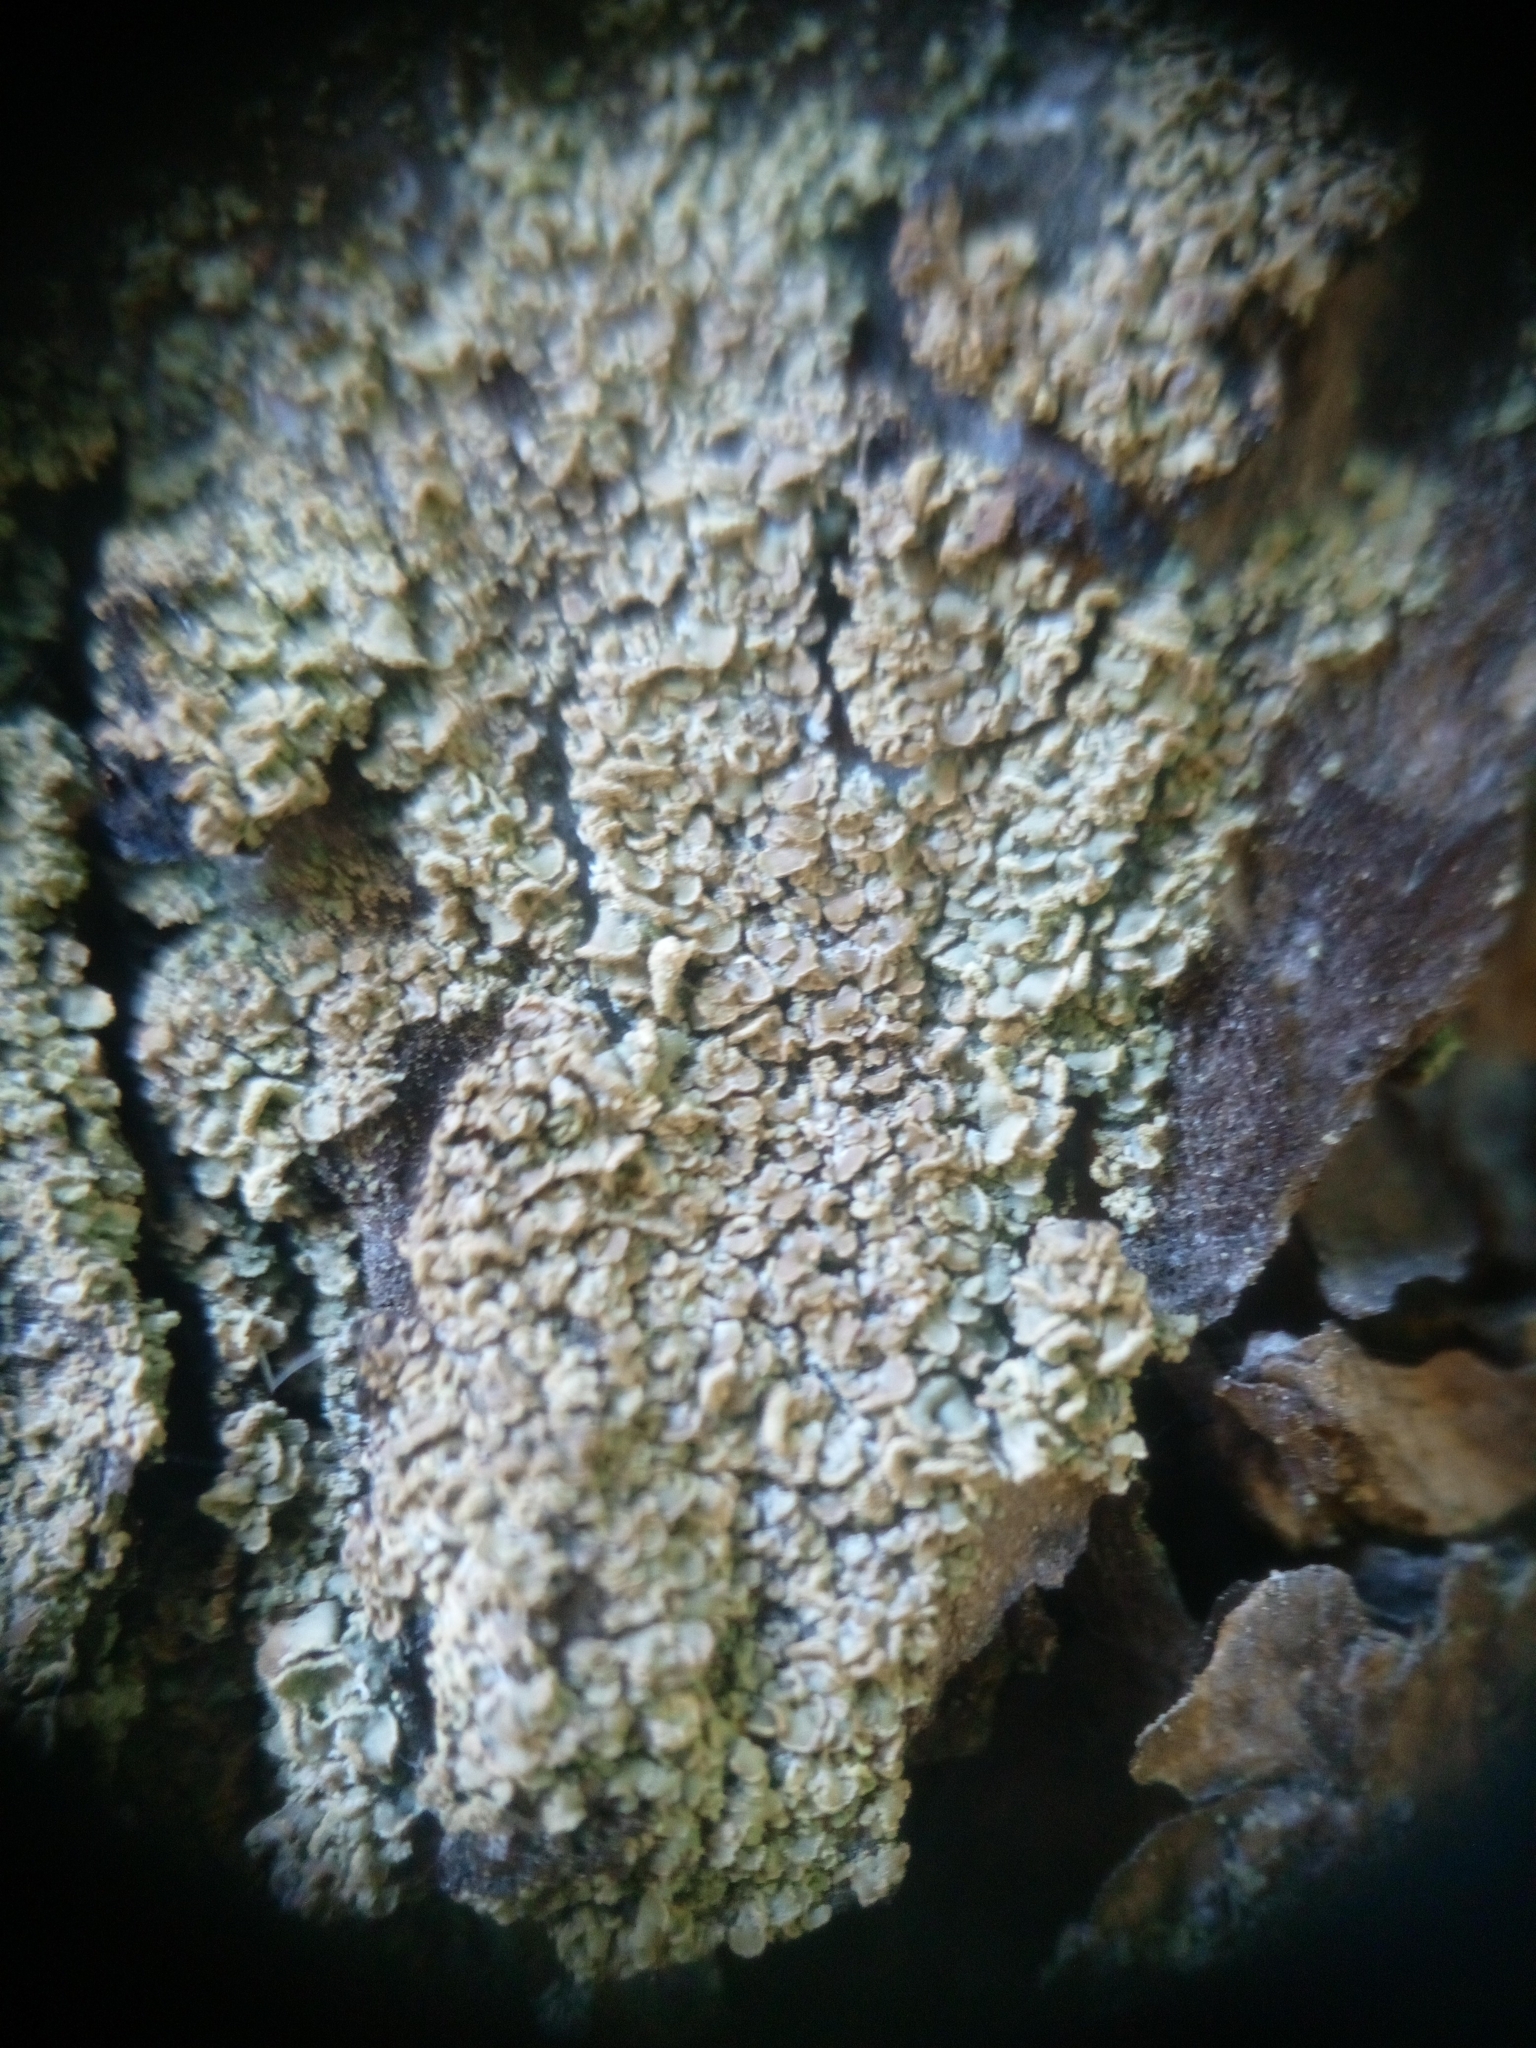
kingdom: Fungi
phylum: Ascomycota
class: Lecanoromycetes
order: Umbilicariales
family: Ophioparmaceae
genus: Hypocenomyce
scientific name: Hypocenomyce scalaris
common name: Common clam lichen
